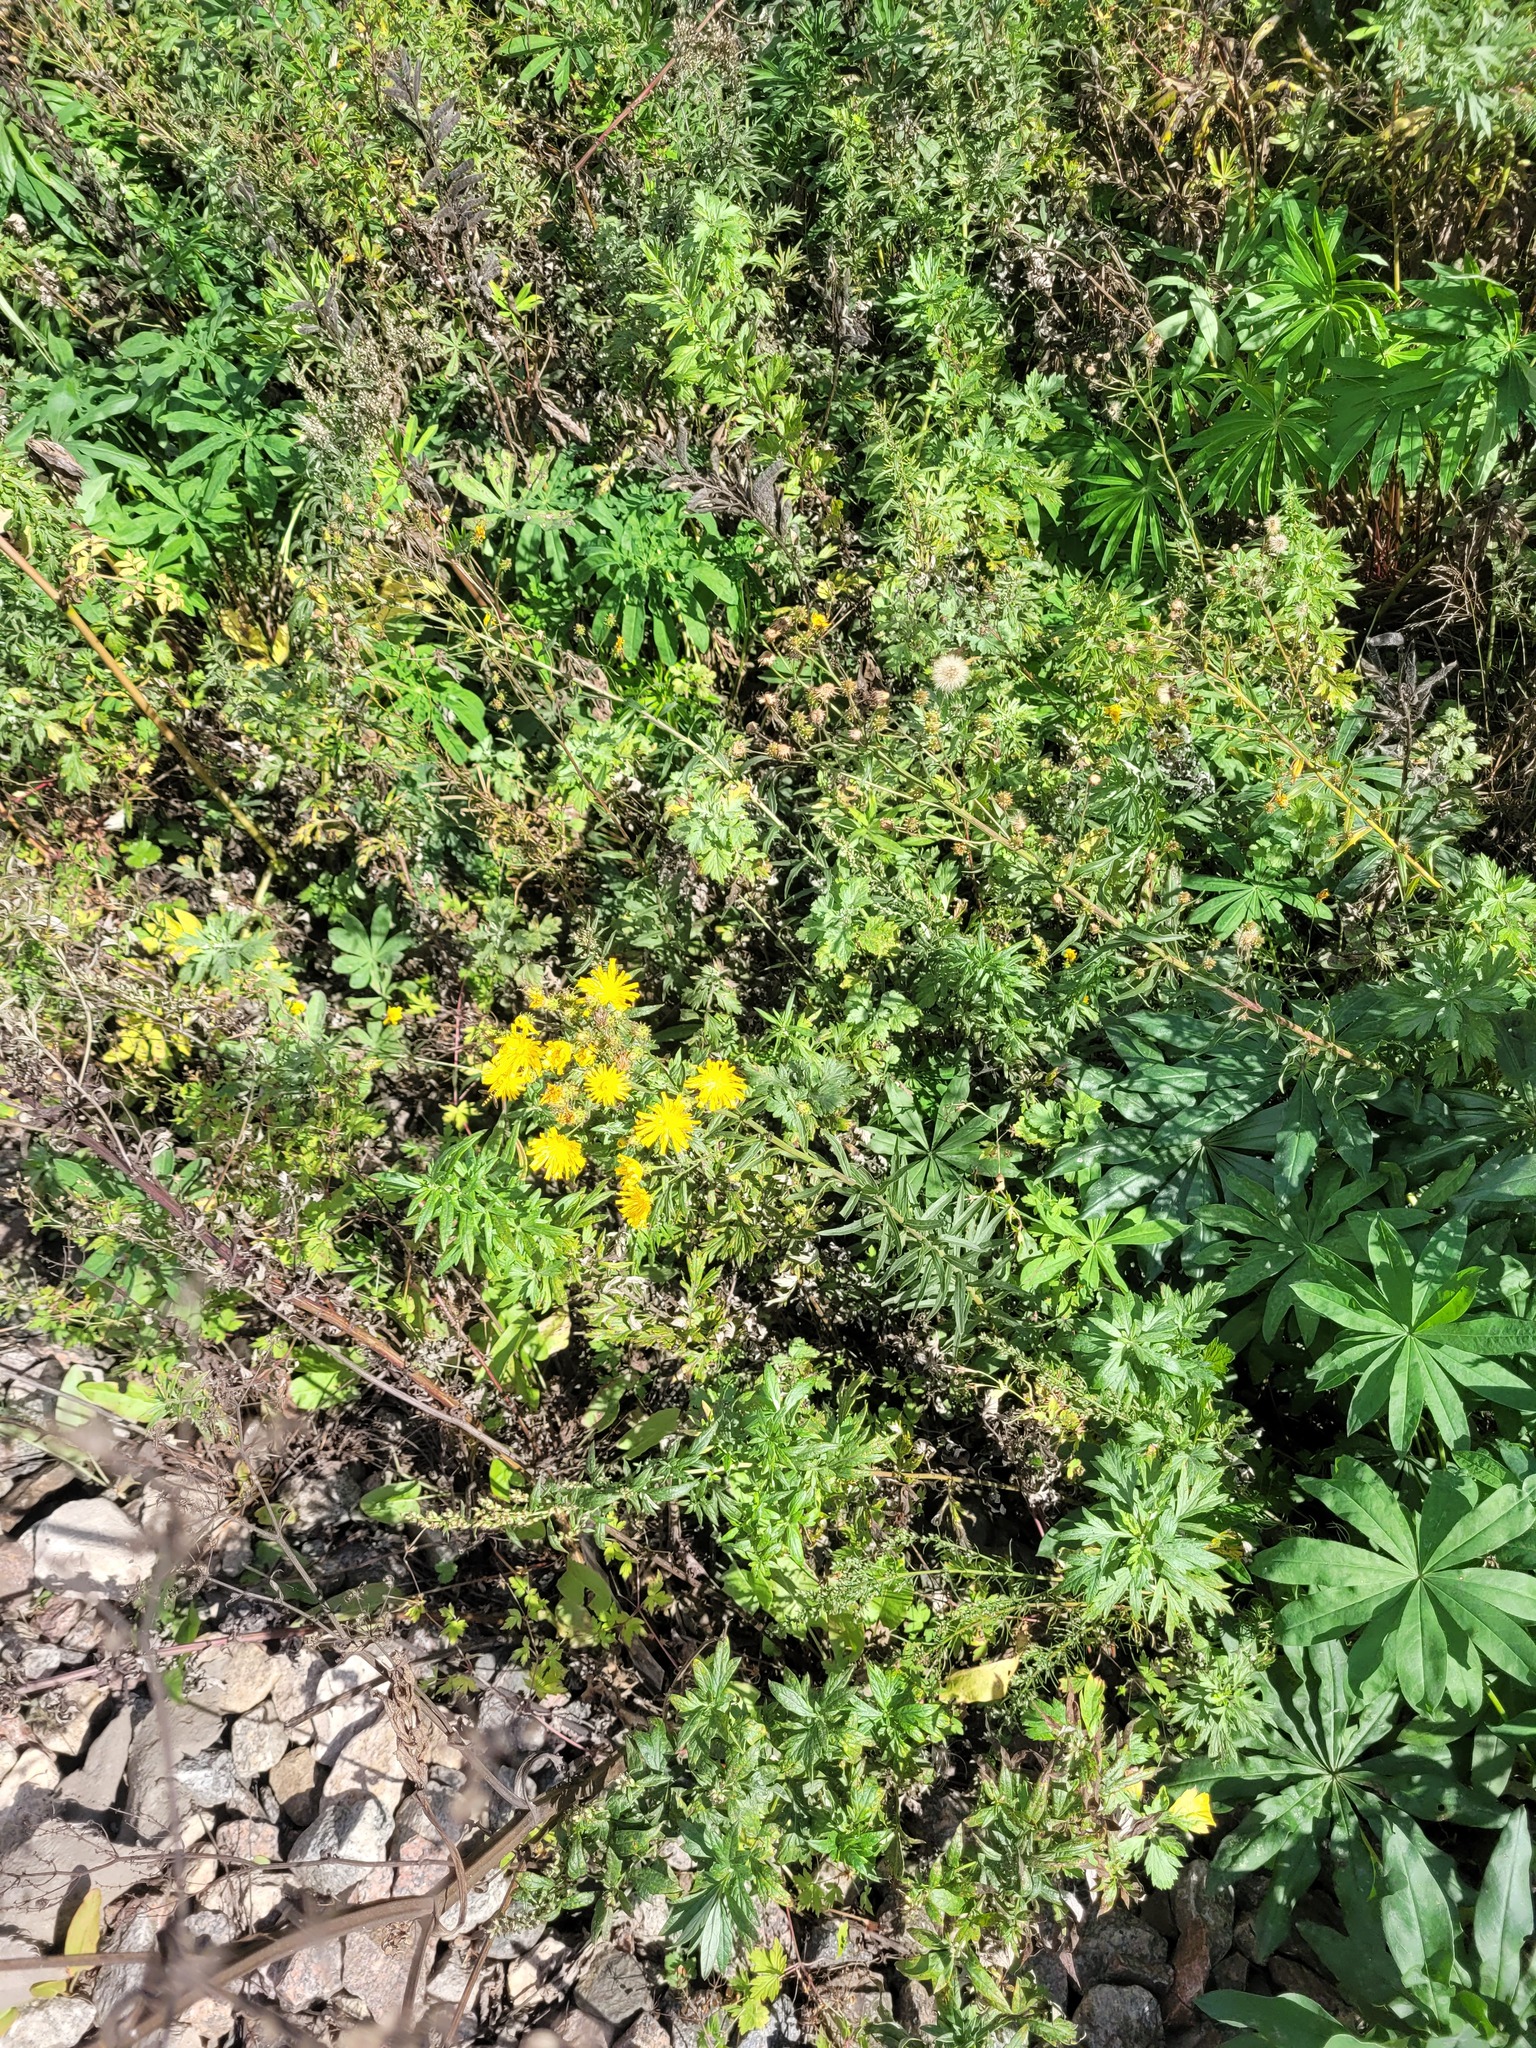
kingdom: Plantae
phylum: Tracheophyta
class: Magnoliopsida
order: Asterales
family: Asteraceae
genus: Hieracium
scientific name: Hieracium umbellatum
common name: Northern hawkweed
